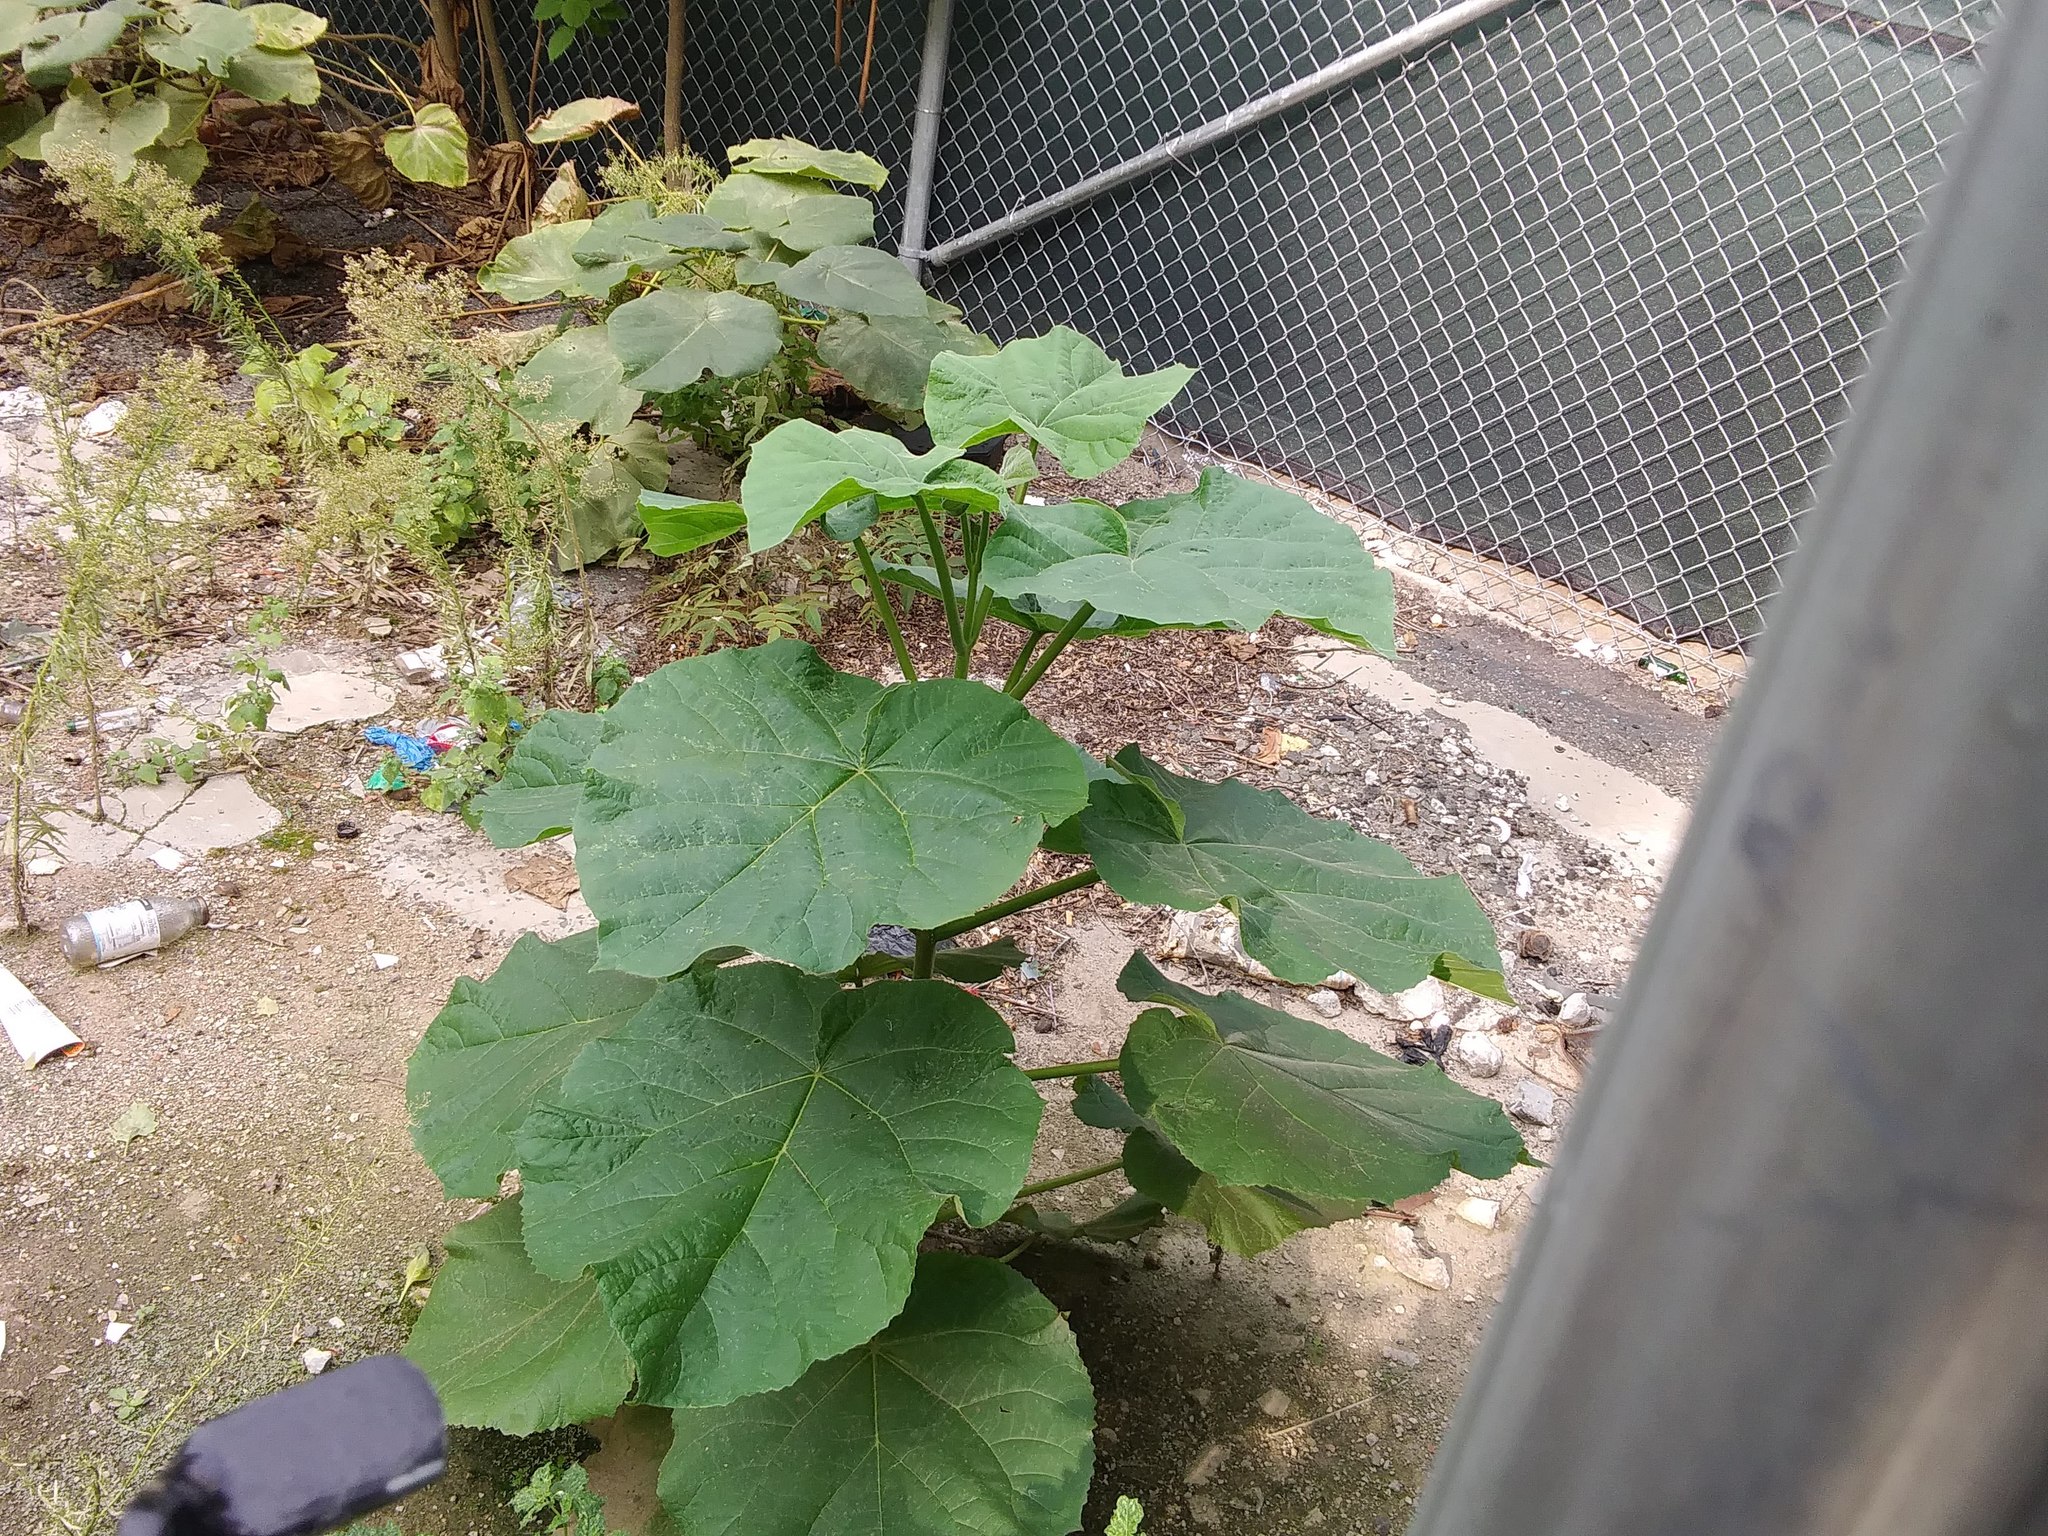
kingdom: Plantae
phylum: Tracheophyta
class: Magnoliopsida
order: Lamiales
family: Paulowniaceae
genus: Paulownia
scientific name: Paulownia tomentosa
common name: Foxglove-tree
